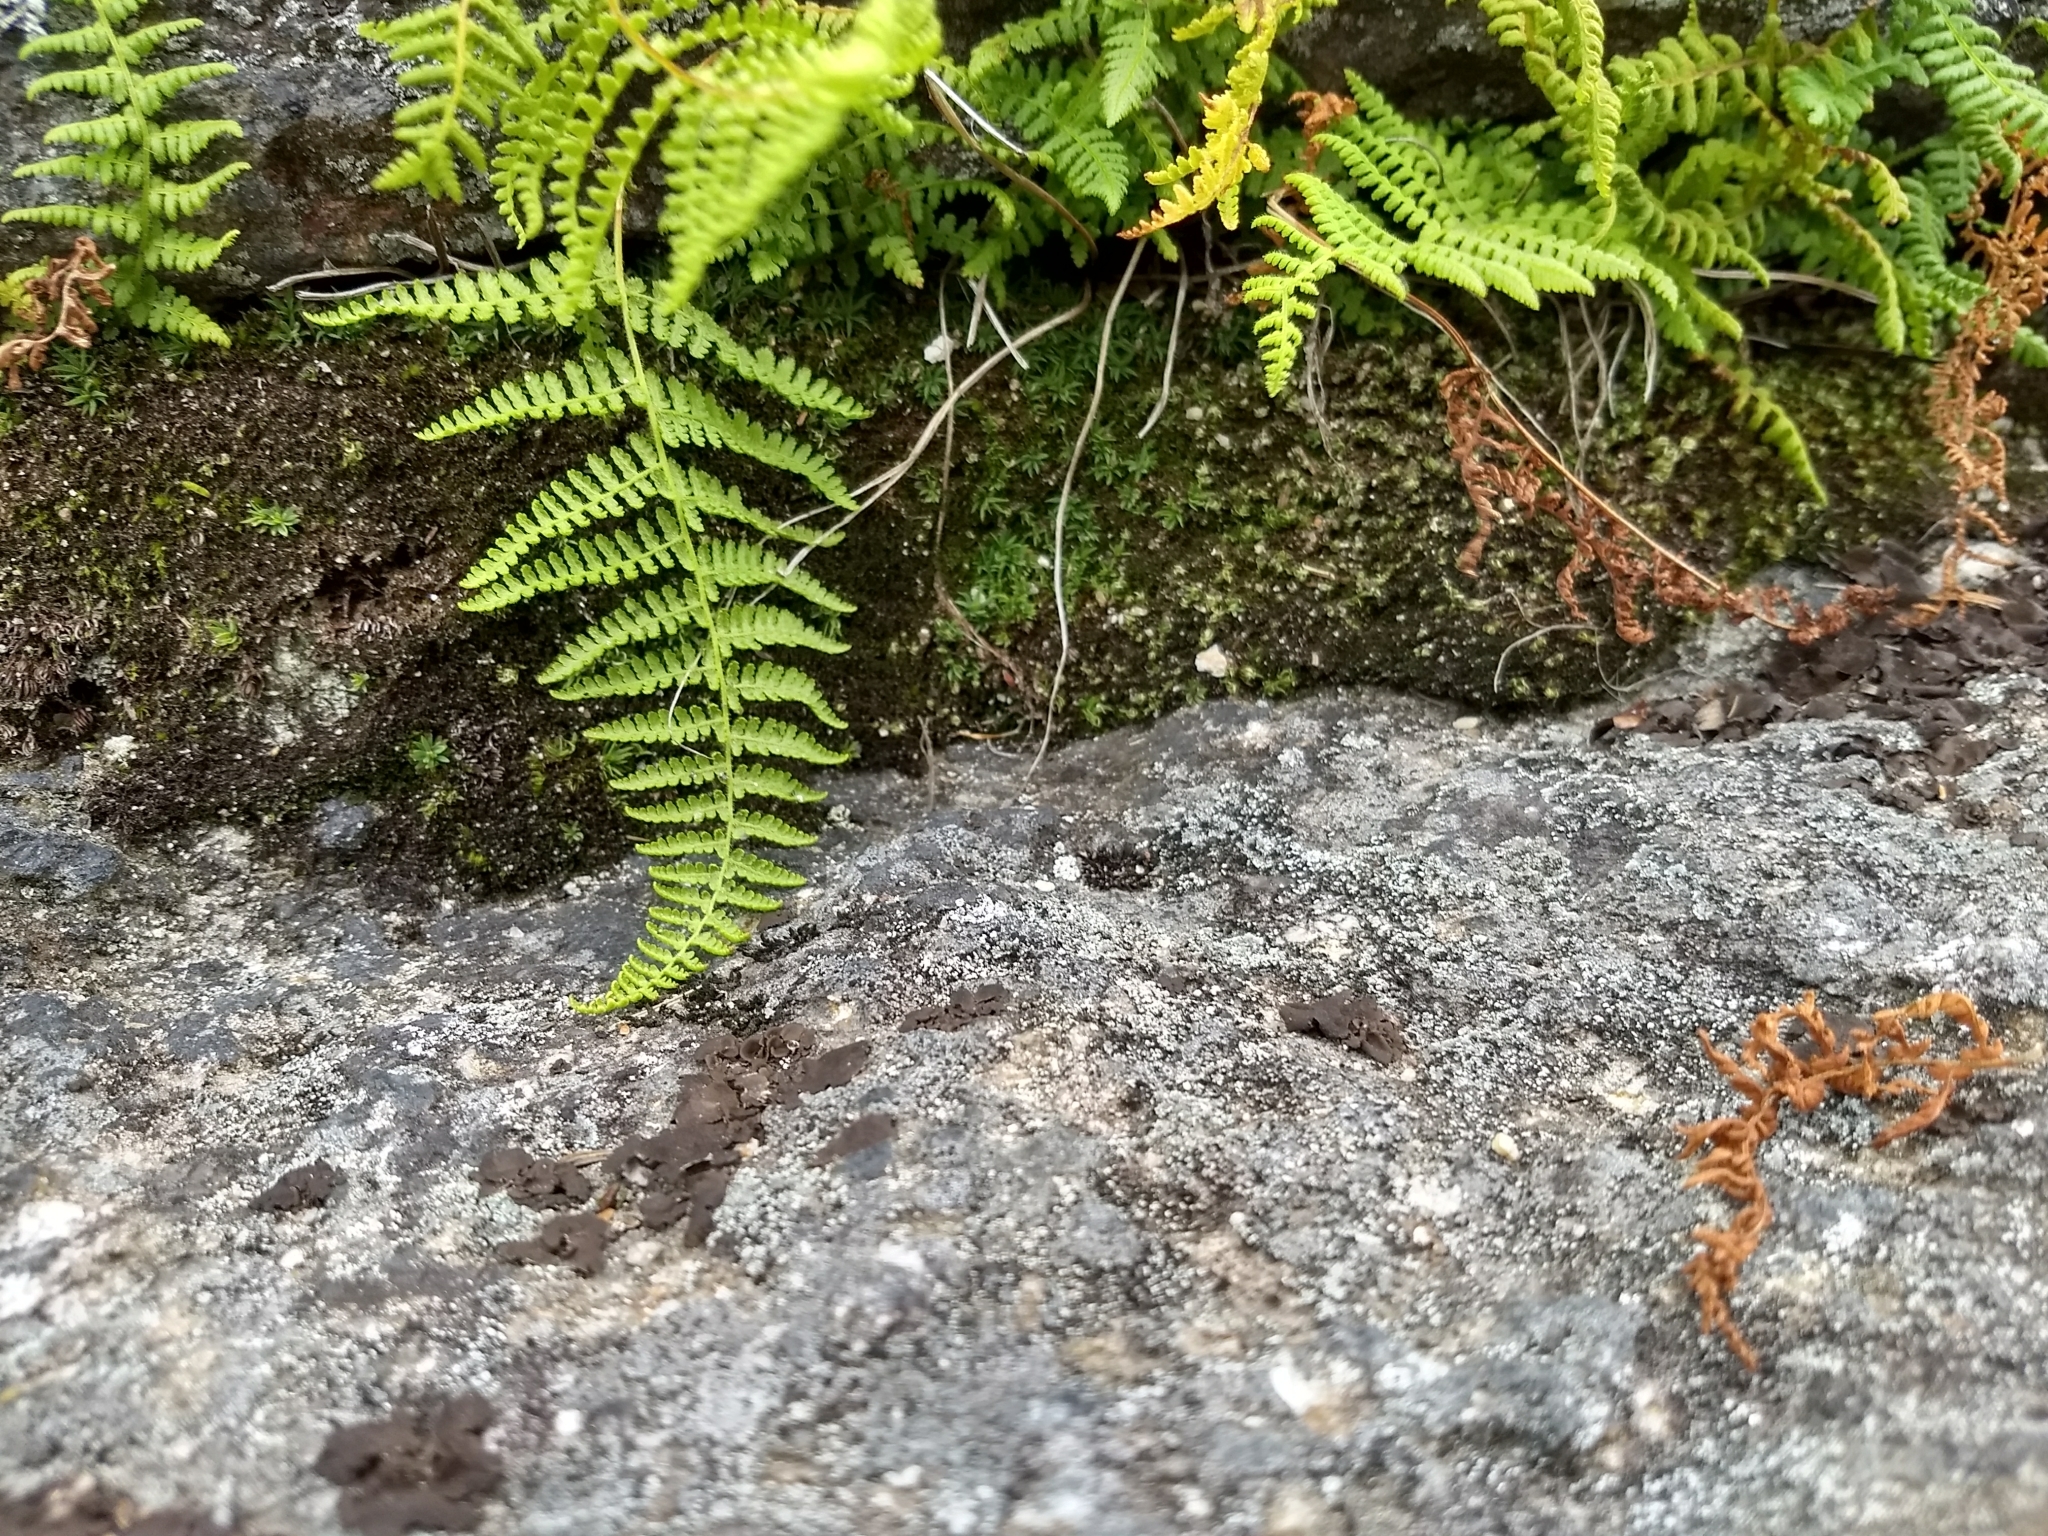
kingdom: Plantae
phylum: Tracheophyta
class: Polypodiopsida
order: Polypodiales
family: Dennstaedtiaceae
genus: Sitobolium
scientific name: Sitobolium punctilobum
